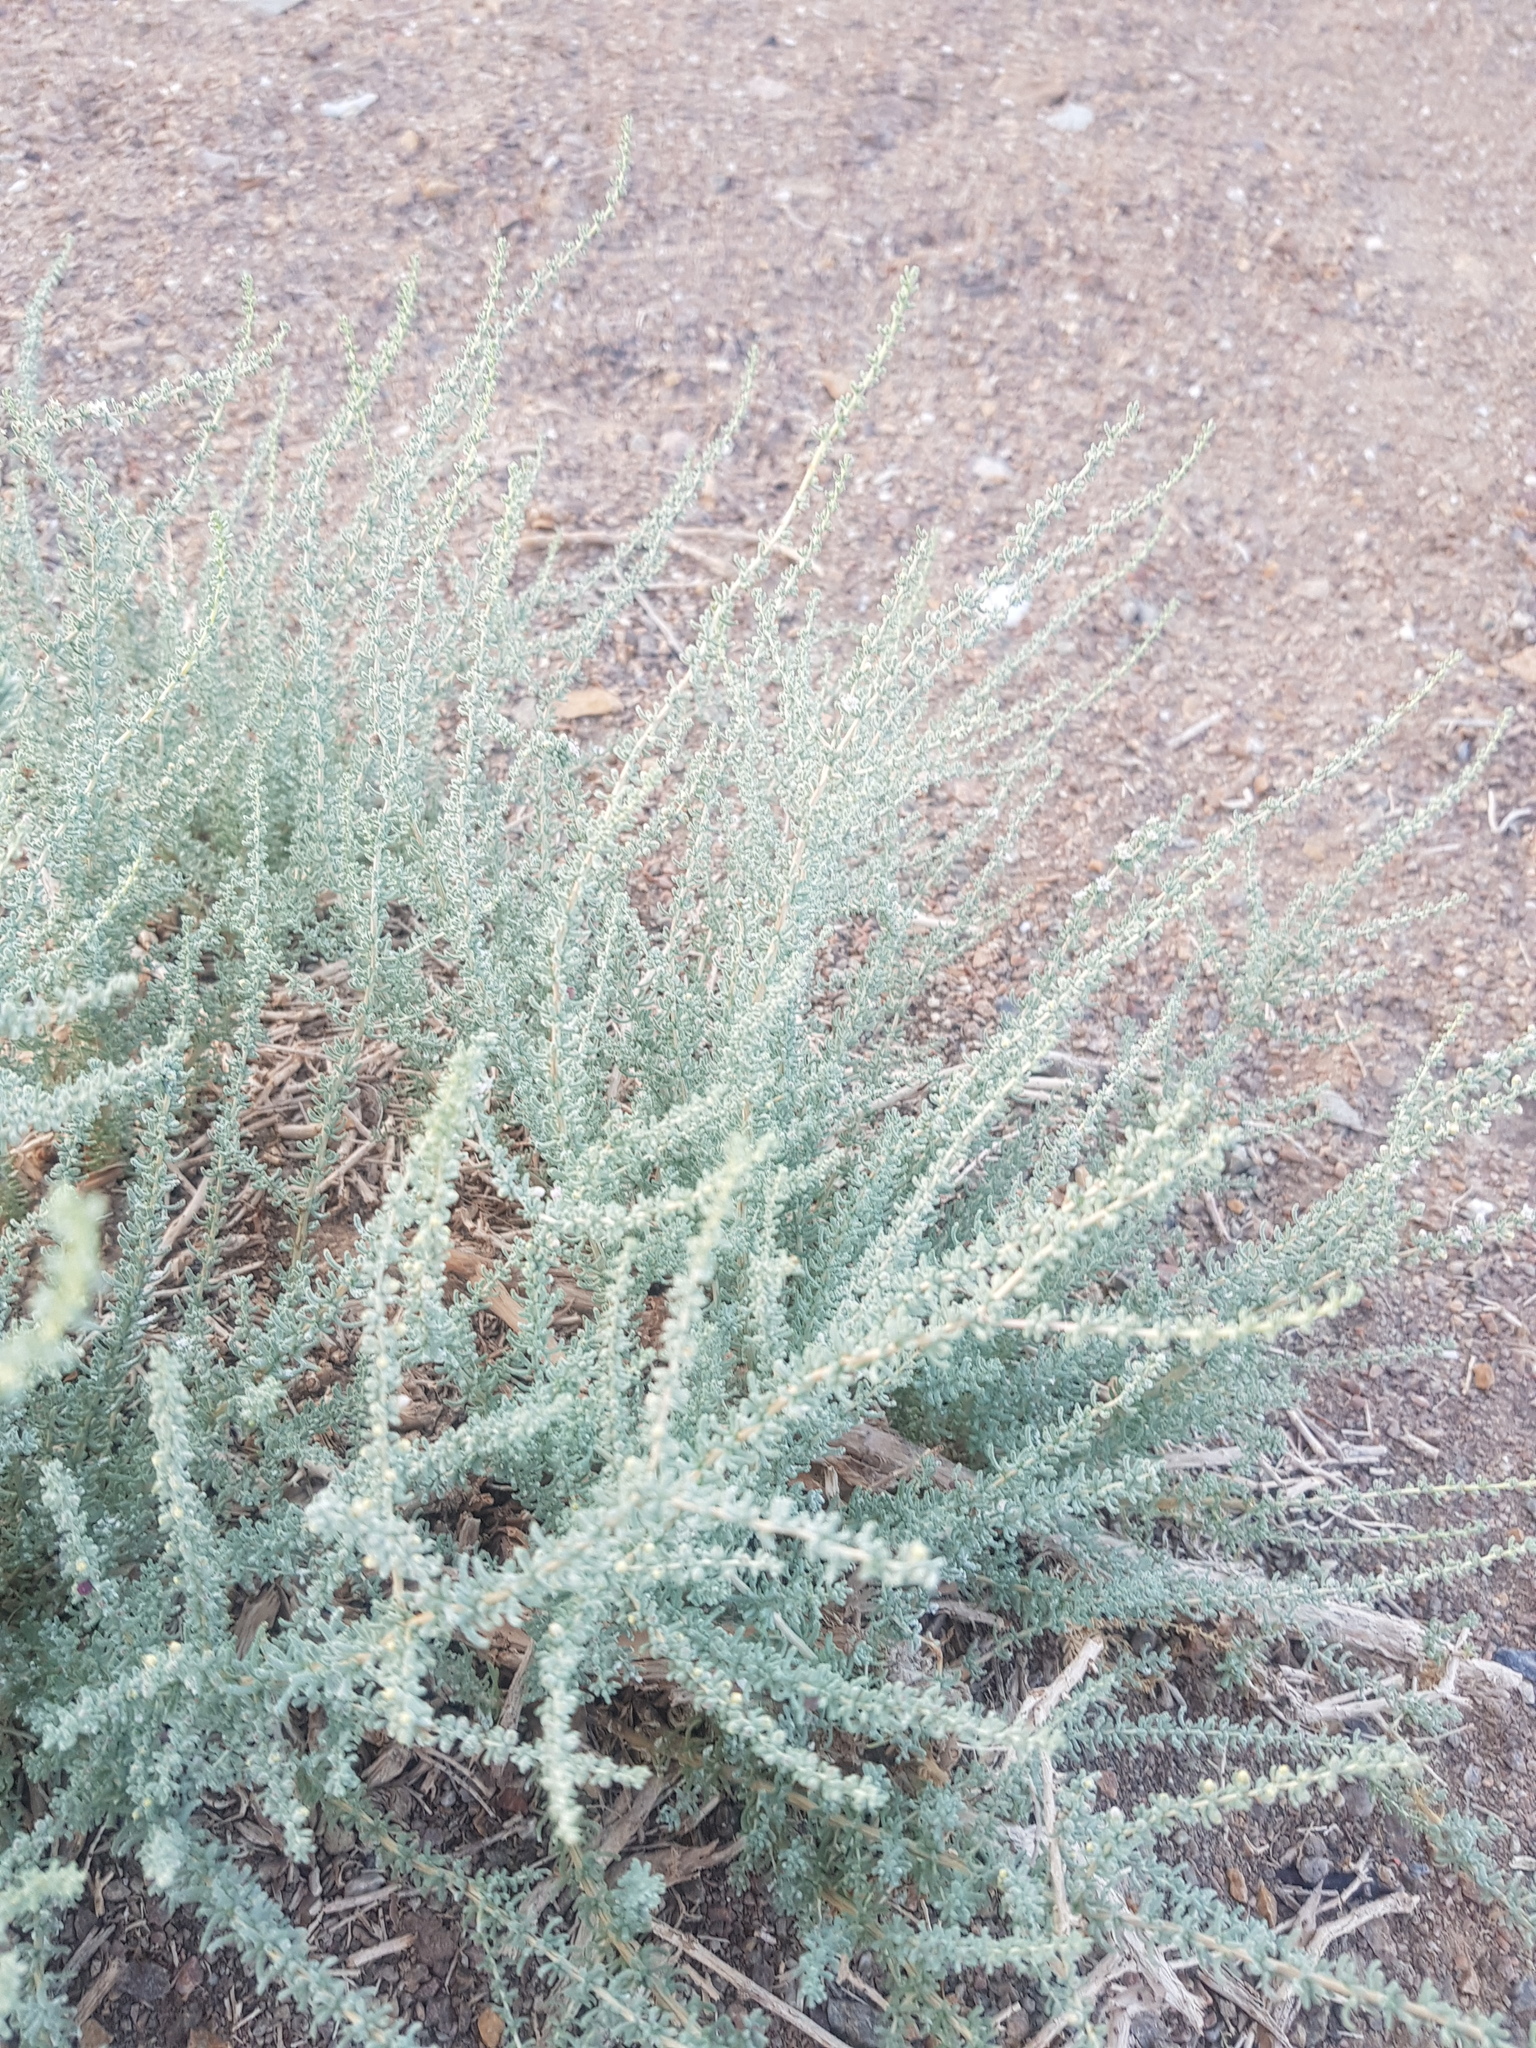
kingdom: Plantae
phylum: Tracheophyta
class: Magnoliopsida
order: Caryophyllales
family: Tamaricaceae
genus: Reaumuria
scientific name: Reaumuria songarica
